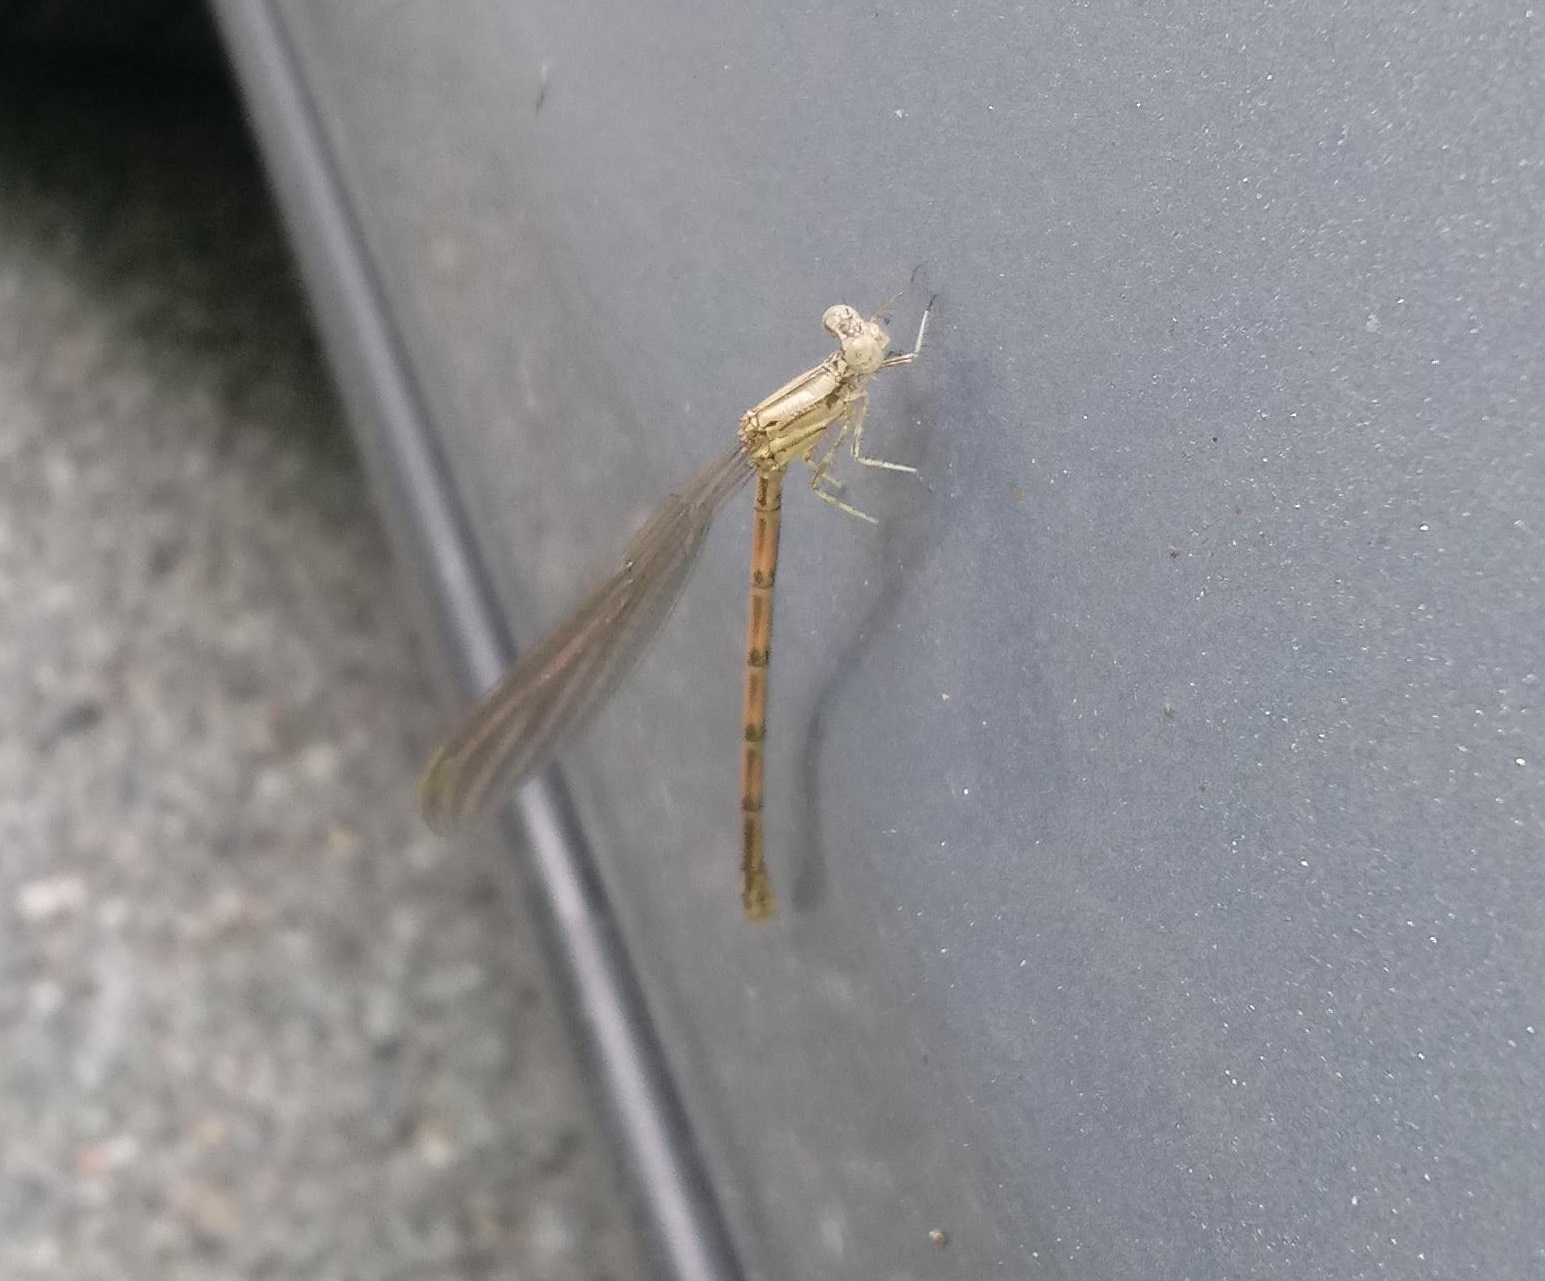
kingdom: Animalia
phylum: Arthropoda
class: Insecta
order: Odonata
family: Coenagrionidae
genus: Argia
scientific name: Argia fumipennis
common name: Variable dancer
